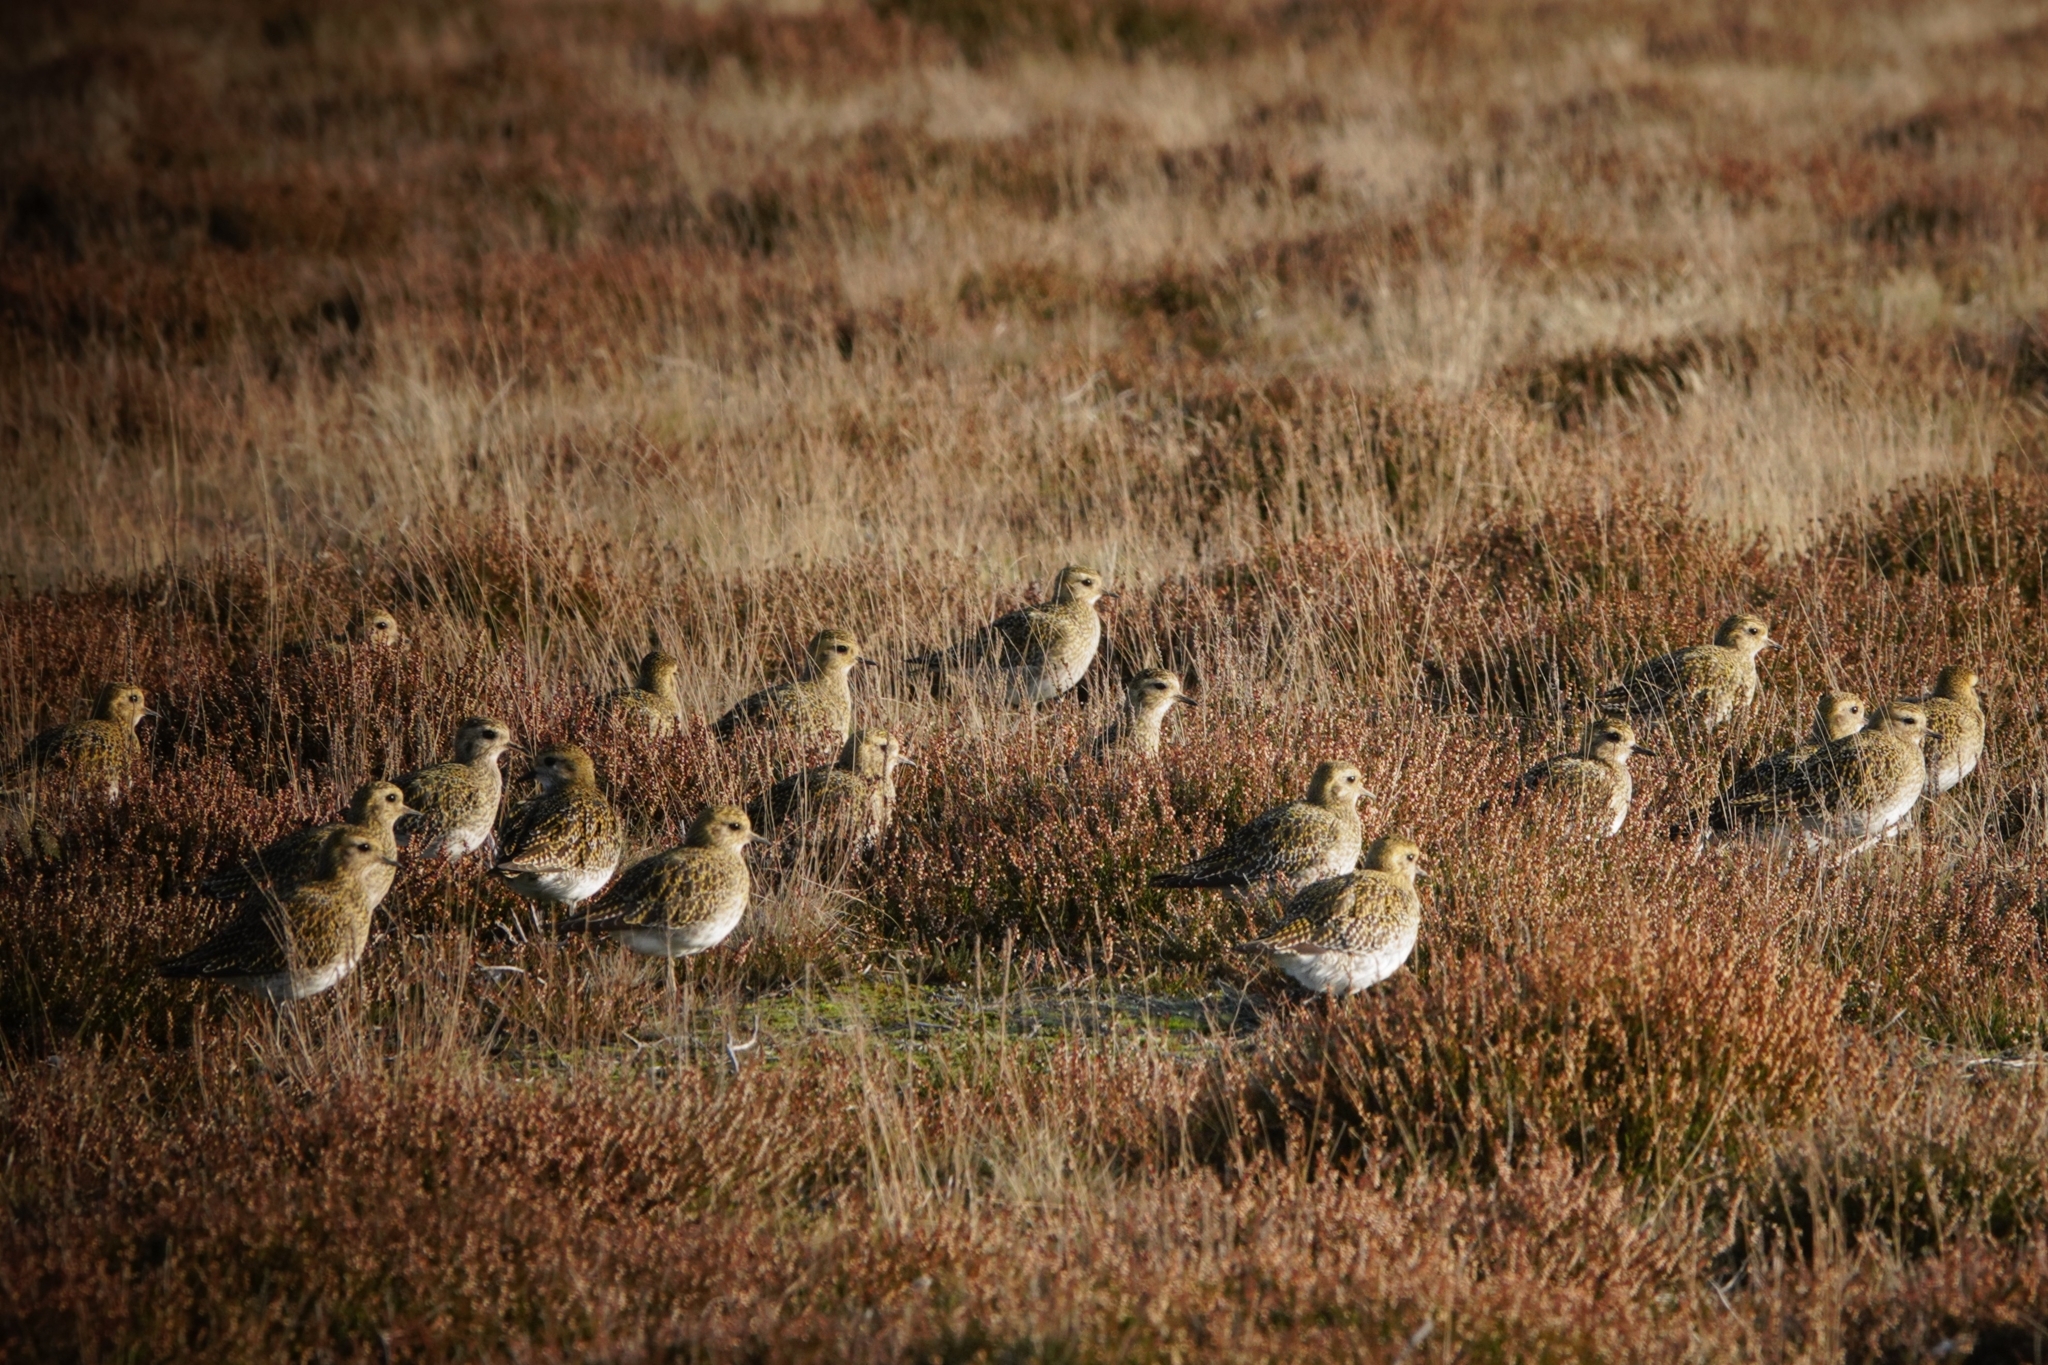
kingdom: Animalia
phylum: Chordata
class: Aves
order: Charadriiformes
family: Charadriidae
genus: Pluvialis
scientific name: Pluvialis apricaria
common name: European golden plover
